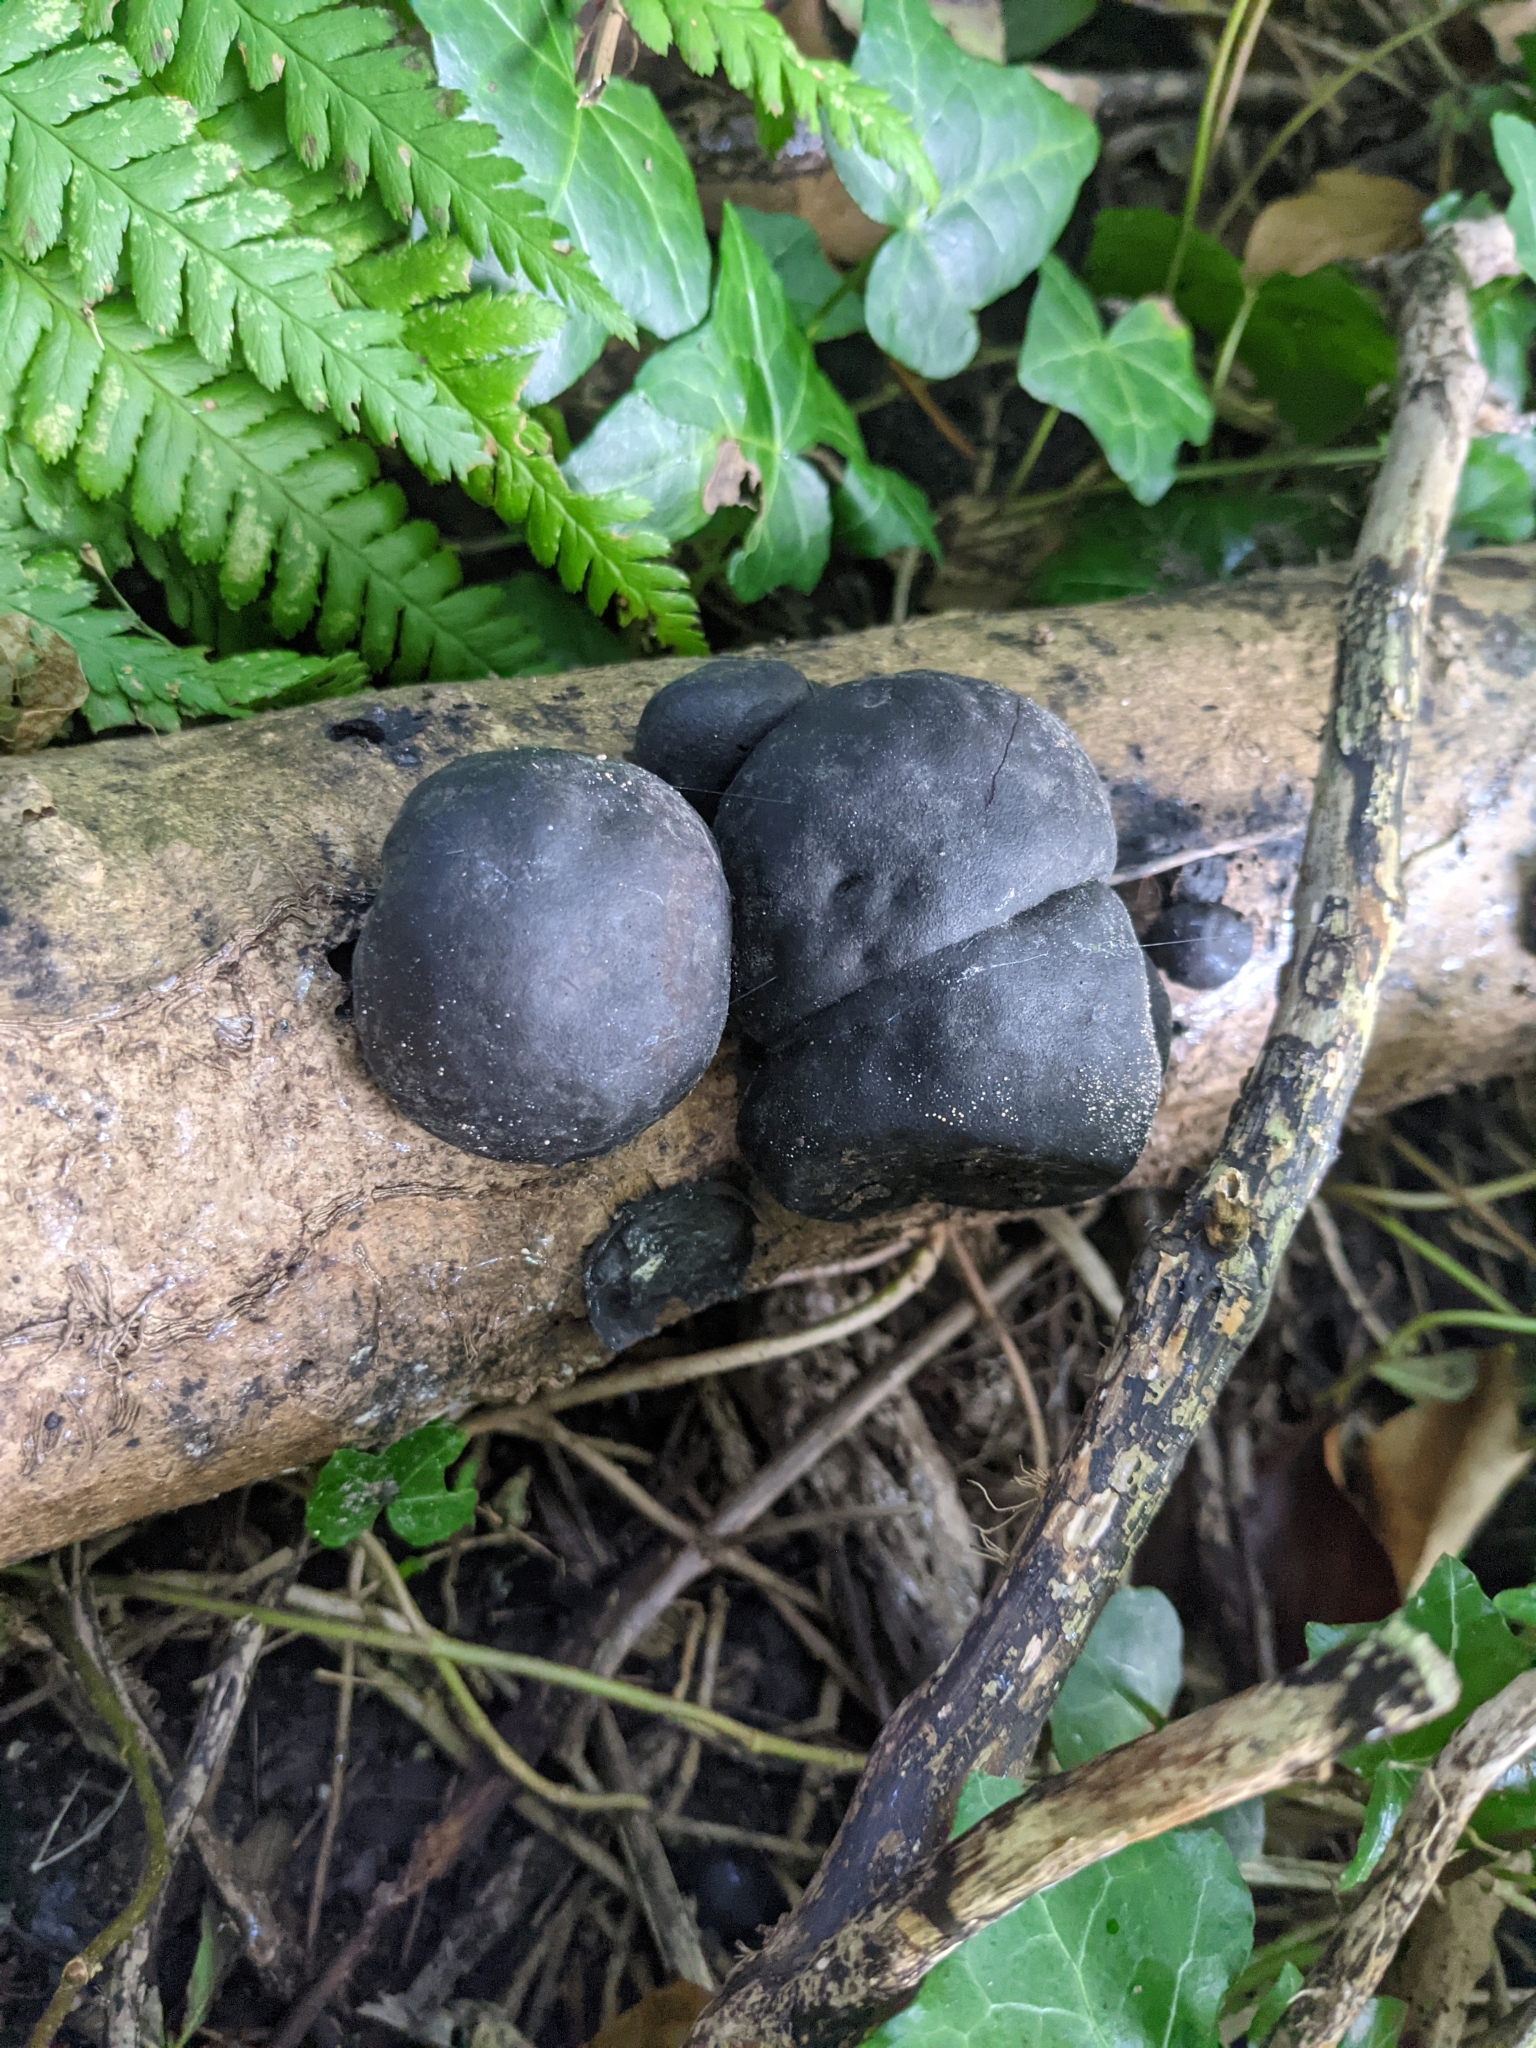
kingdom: Fungi
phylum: Ascomycota
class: Sordariomycetes
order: Xylariales
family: Hypoxylaceae
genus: Daldinia
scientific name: Daldinia concentrica
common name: Cramp balls
